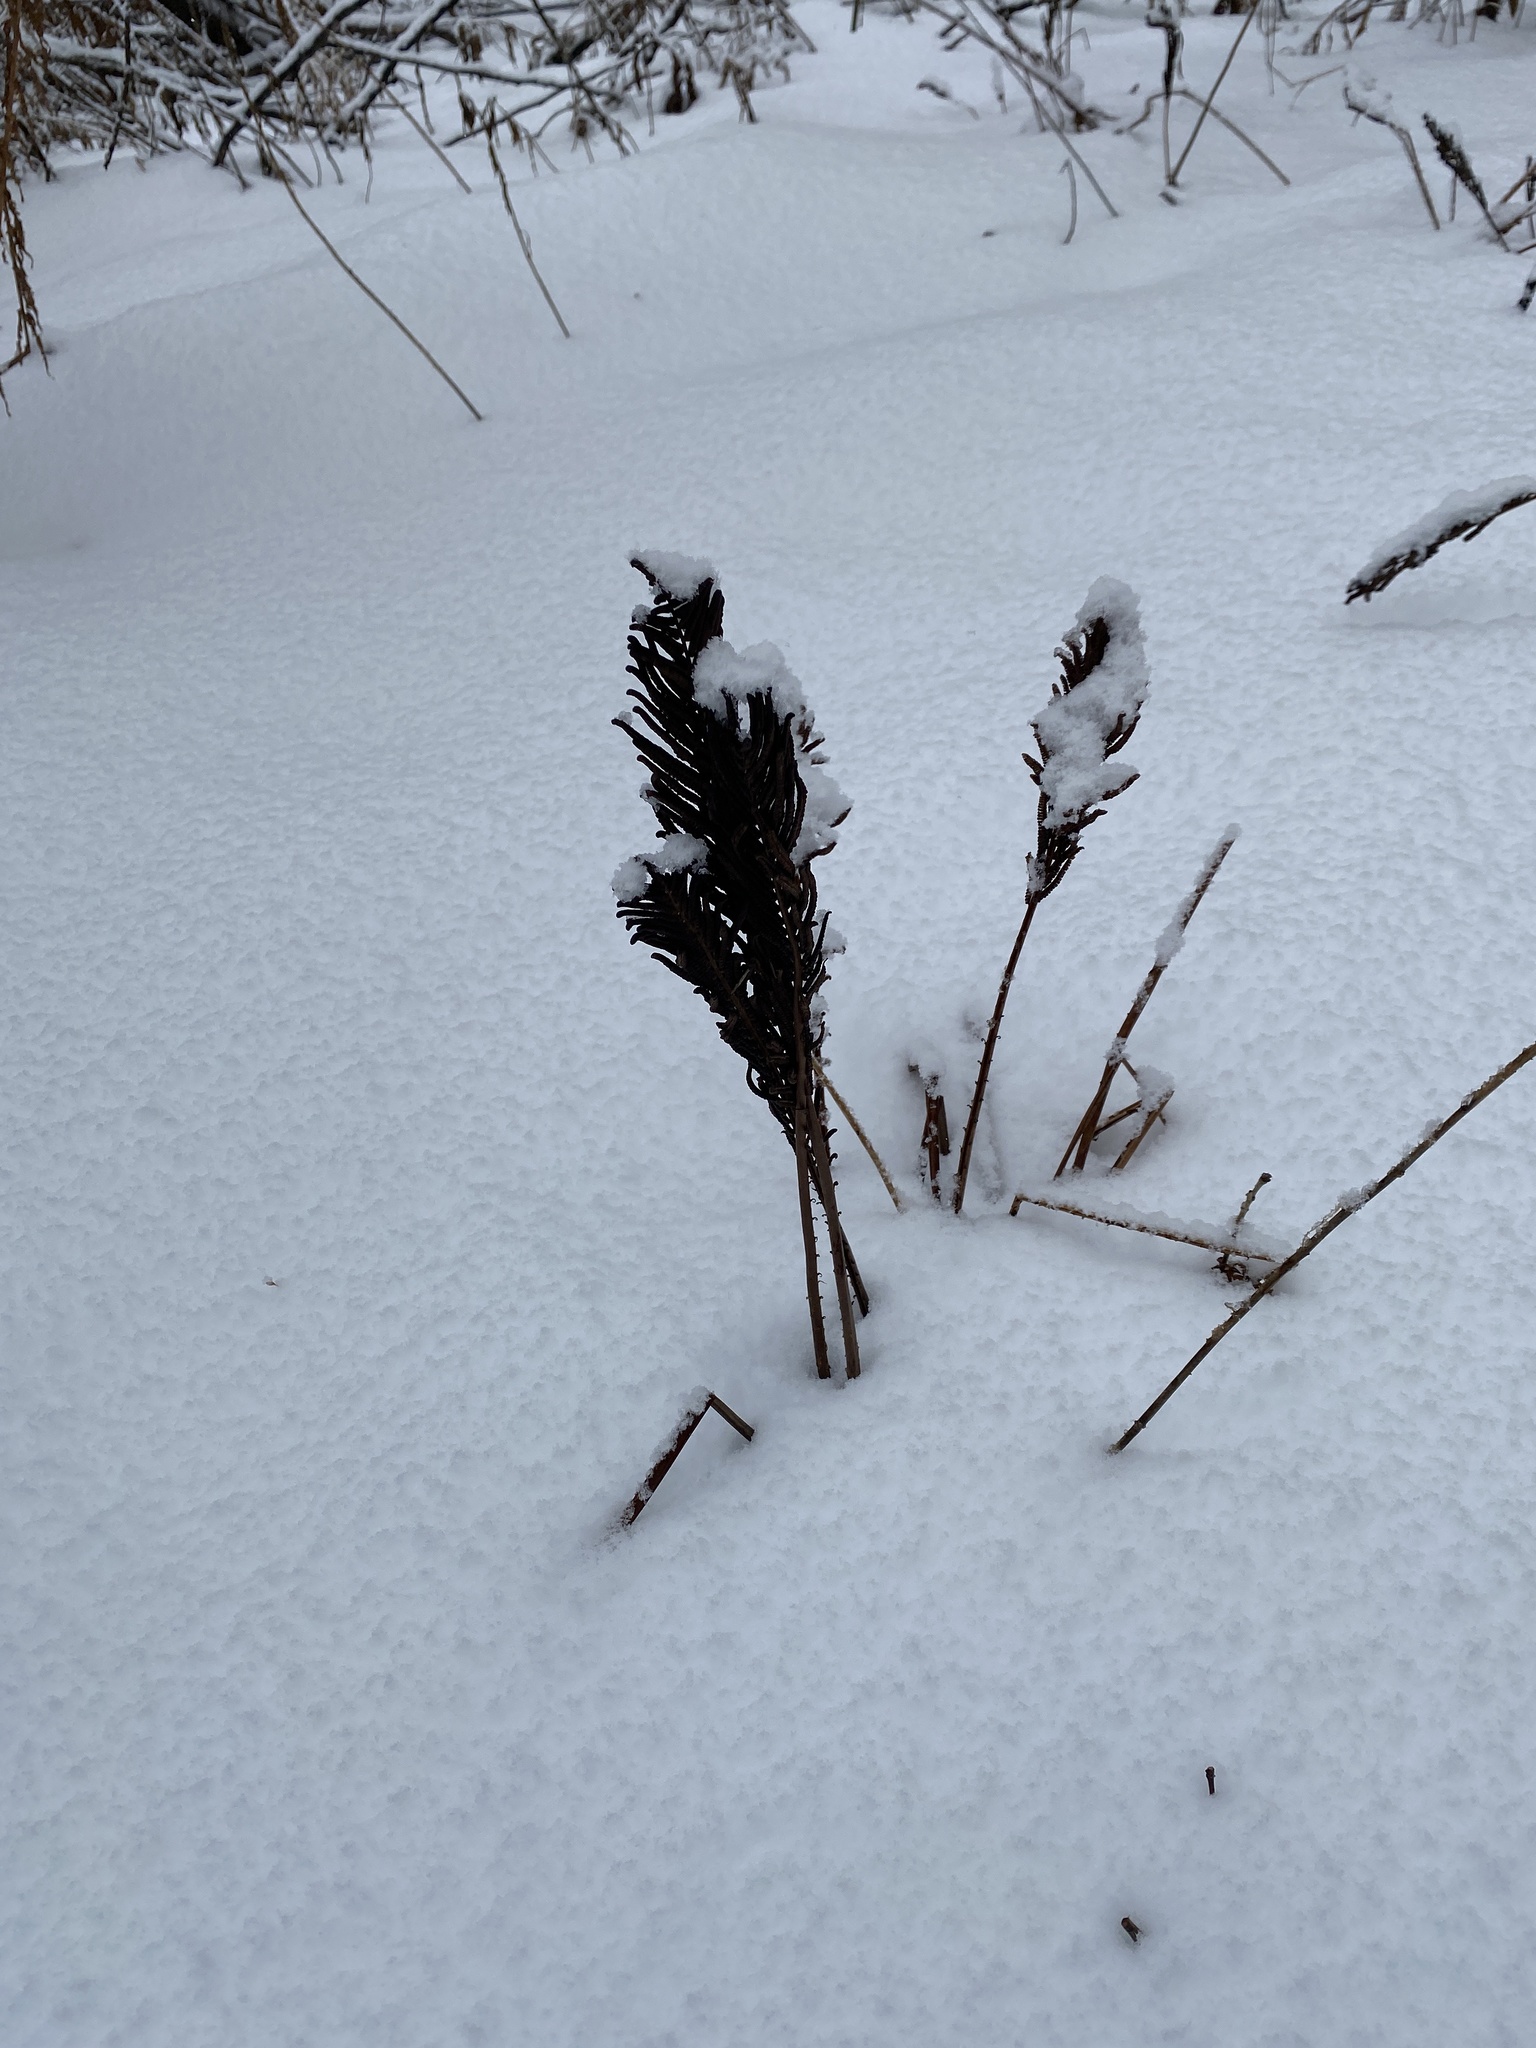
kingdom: Plantae
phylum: Tracheophyta
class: Polypodiopsida
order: Polypodiales
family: Onocleaceae
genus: Matteuccia
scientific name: Matteuccia struthiopteris
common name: Ostrich fern
